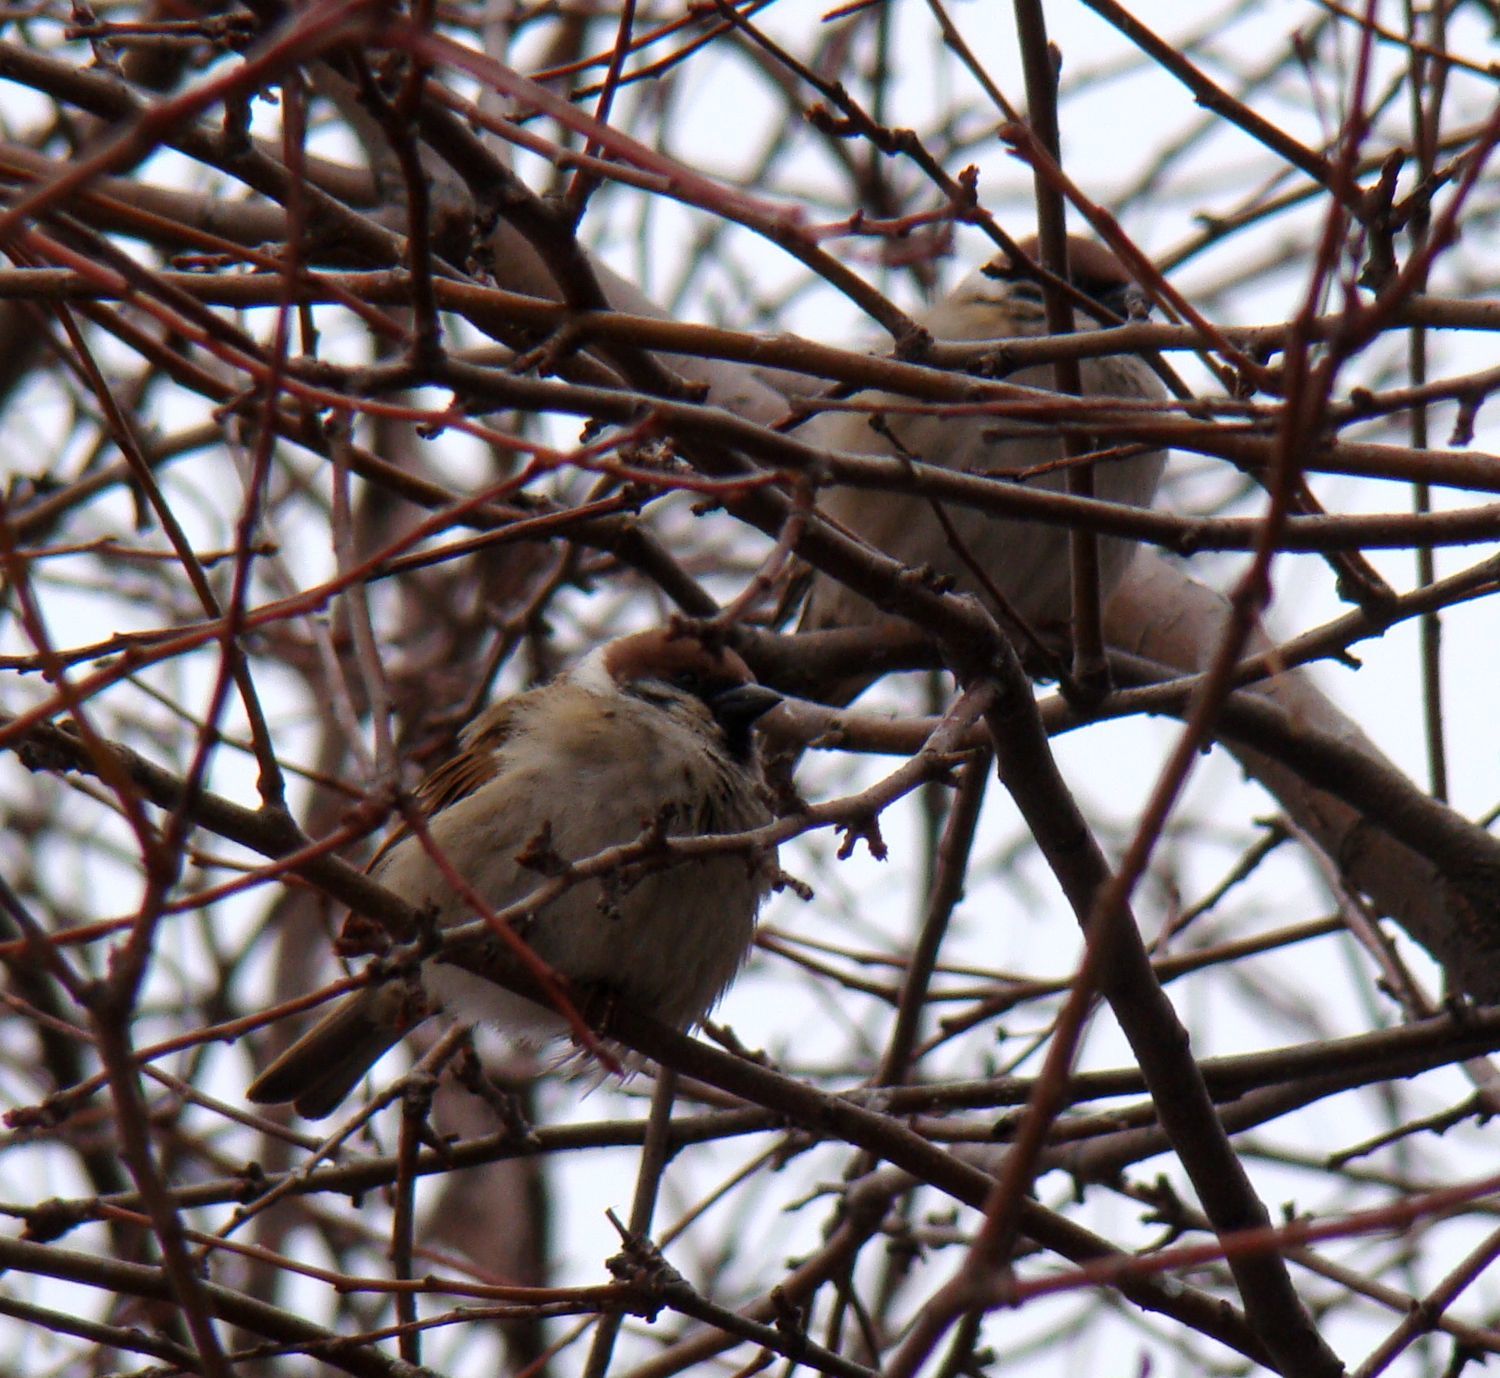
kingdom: Animalia
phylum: Chordata
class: Aves
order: Passeriformes
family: Passeridae
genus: Passer
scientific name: Passer montanus
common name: Eurasian tree sparrow
